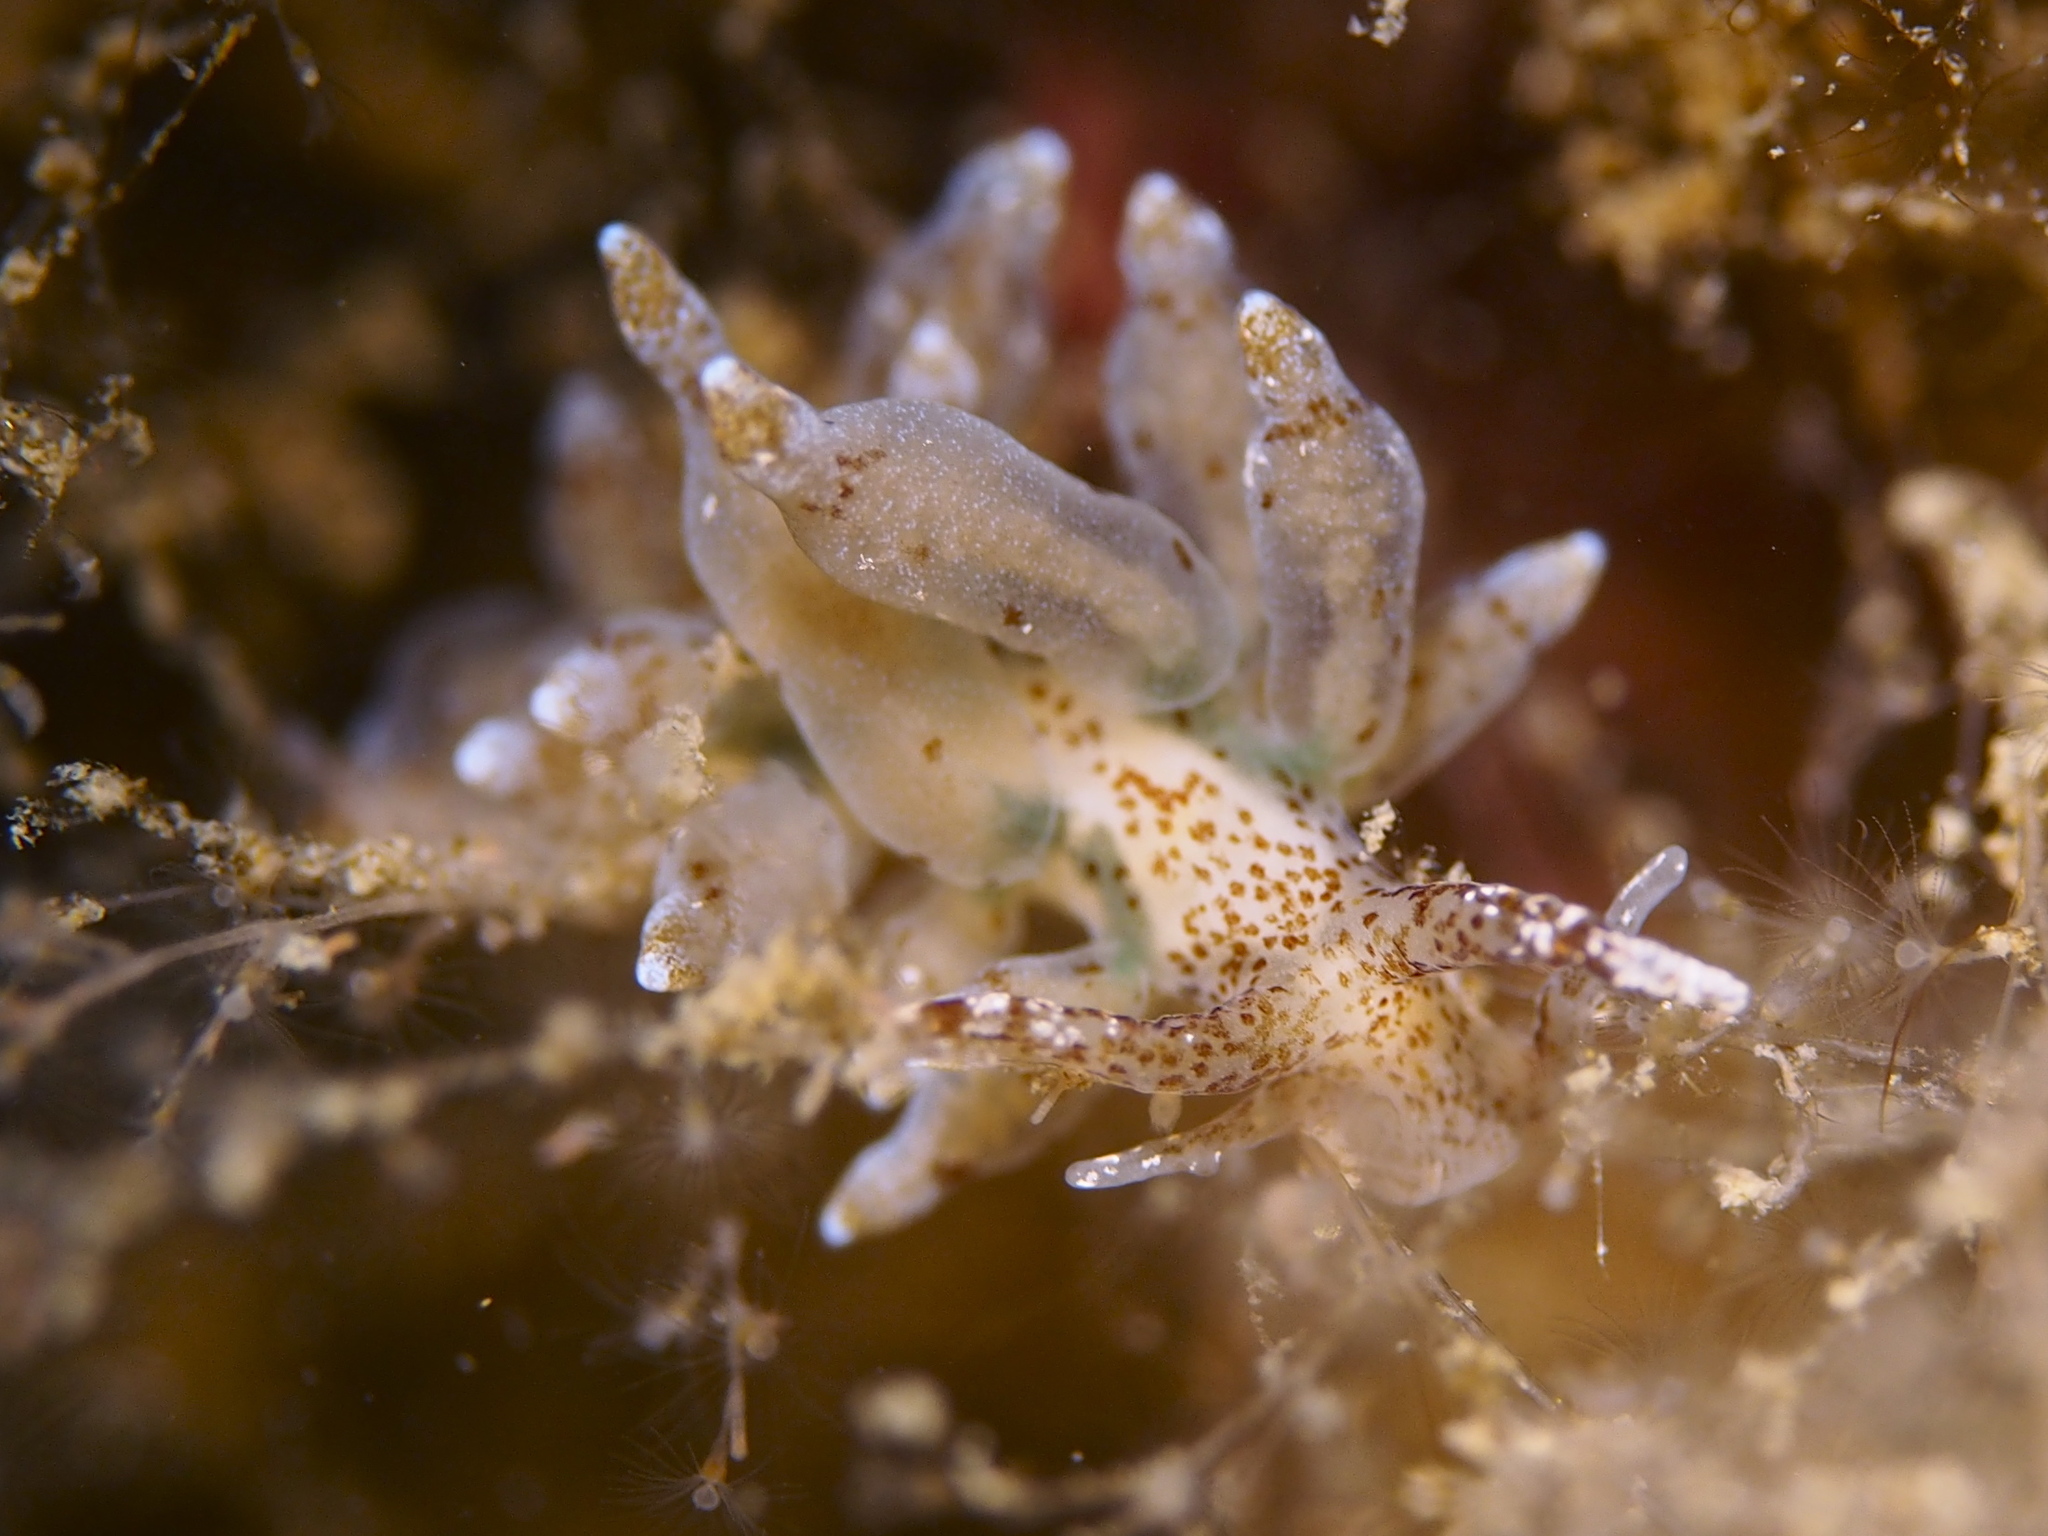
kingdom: Animalia
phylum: Mollusca
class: Gastropoda
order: Nudibranchia
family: Eubranchidae
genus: Eubranchus
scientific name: Eubranchus exiguus
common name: Balloon aeolis
